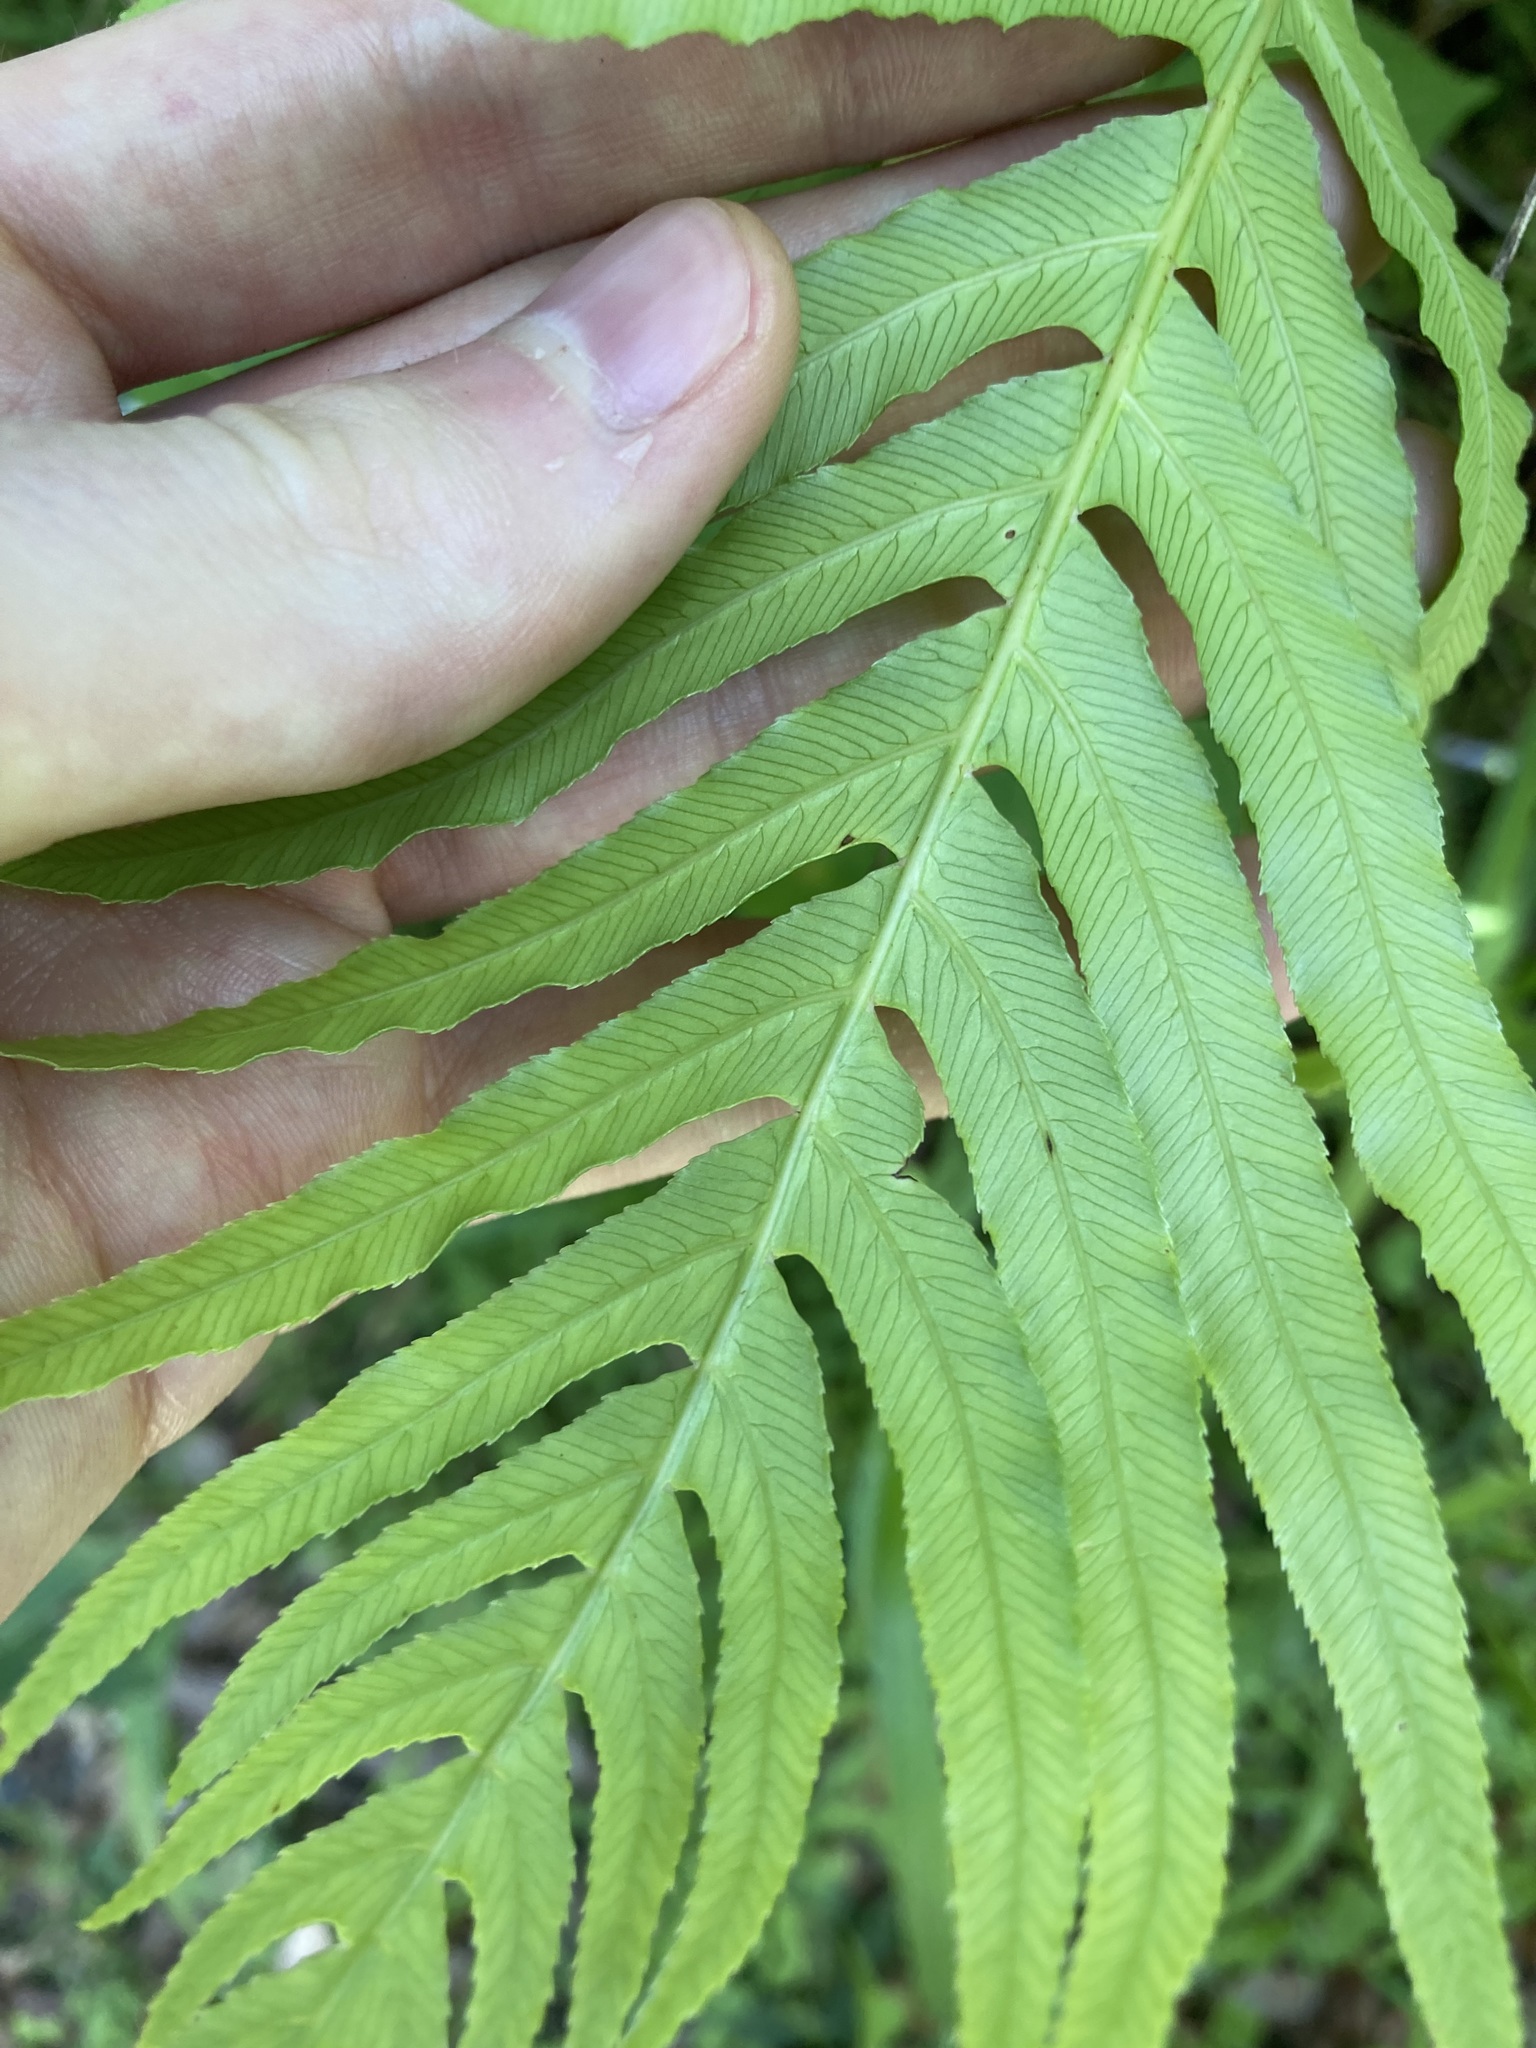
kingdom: Plantae
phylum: Tracheophyta
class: Polypodiopsida
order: Polypodiales
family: Blechnaceae
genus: Oceaniopteris
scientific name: Oceaniopteris cartilaginea
